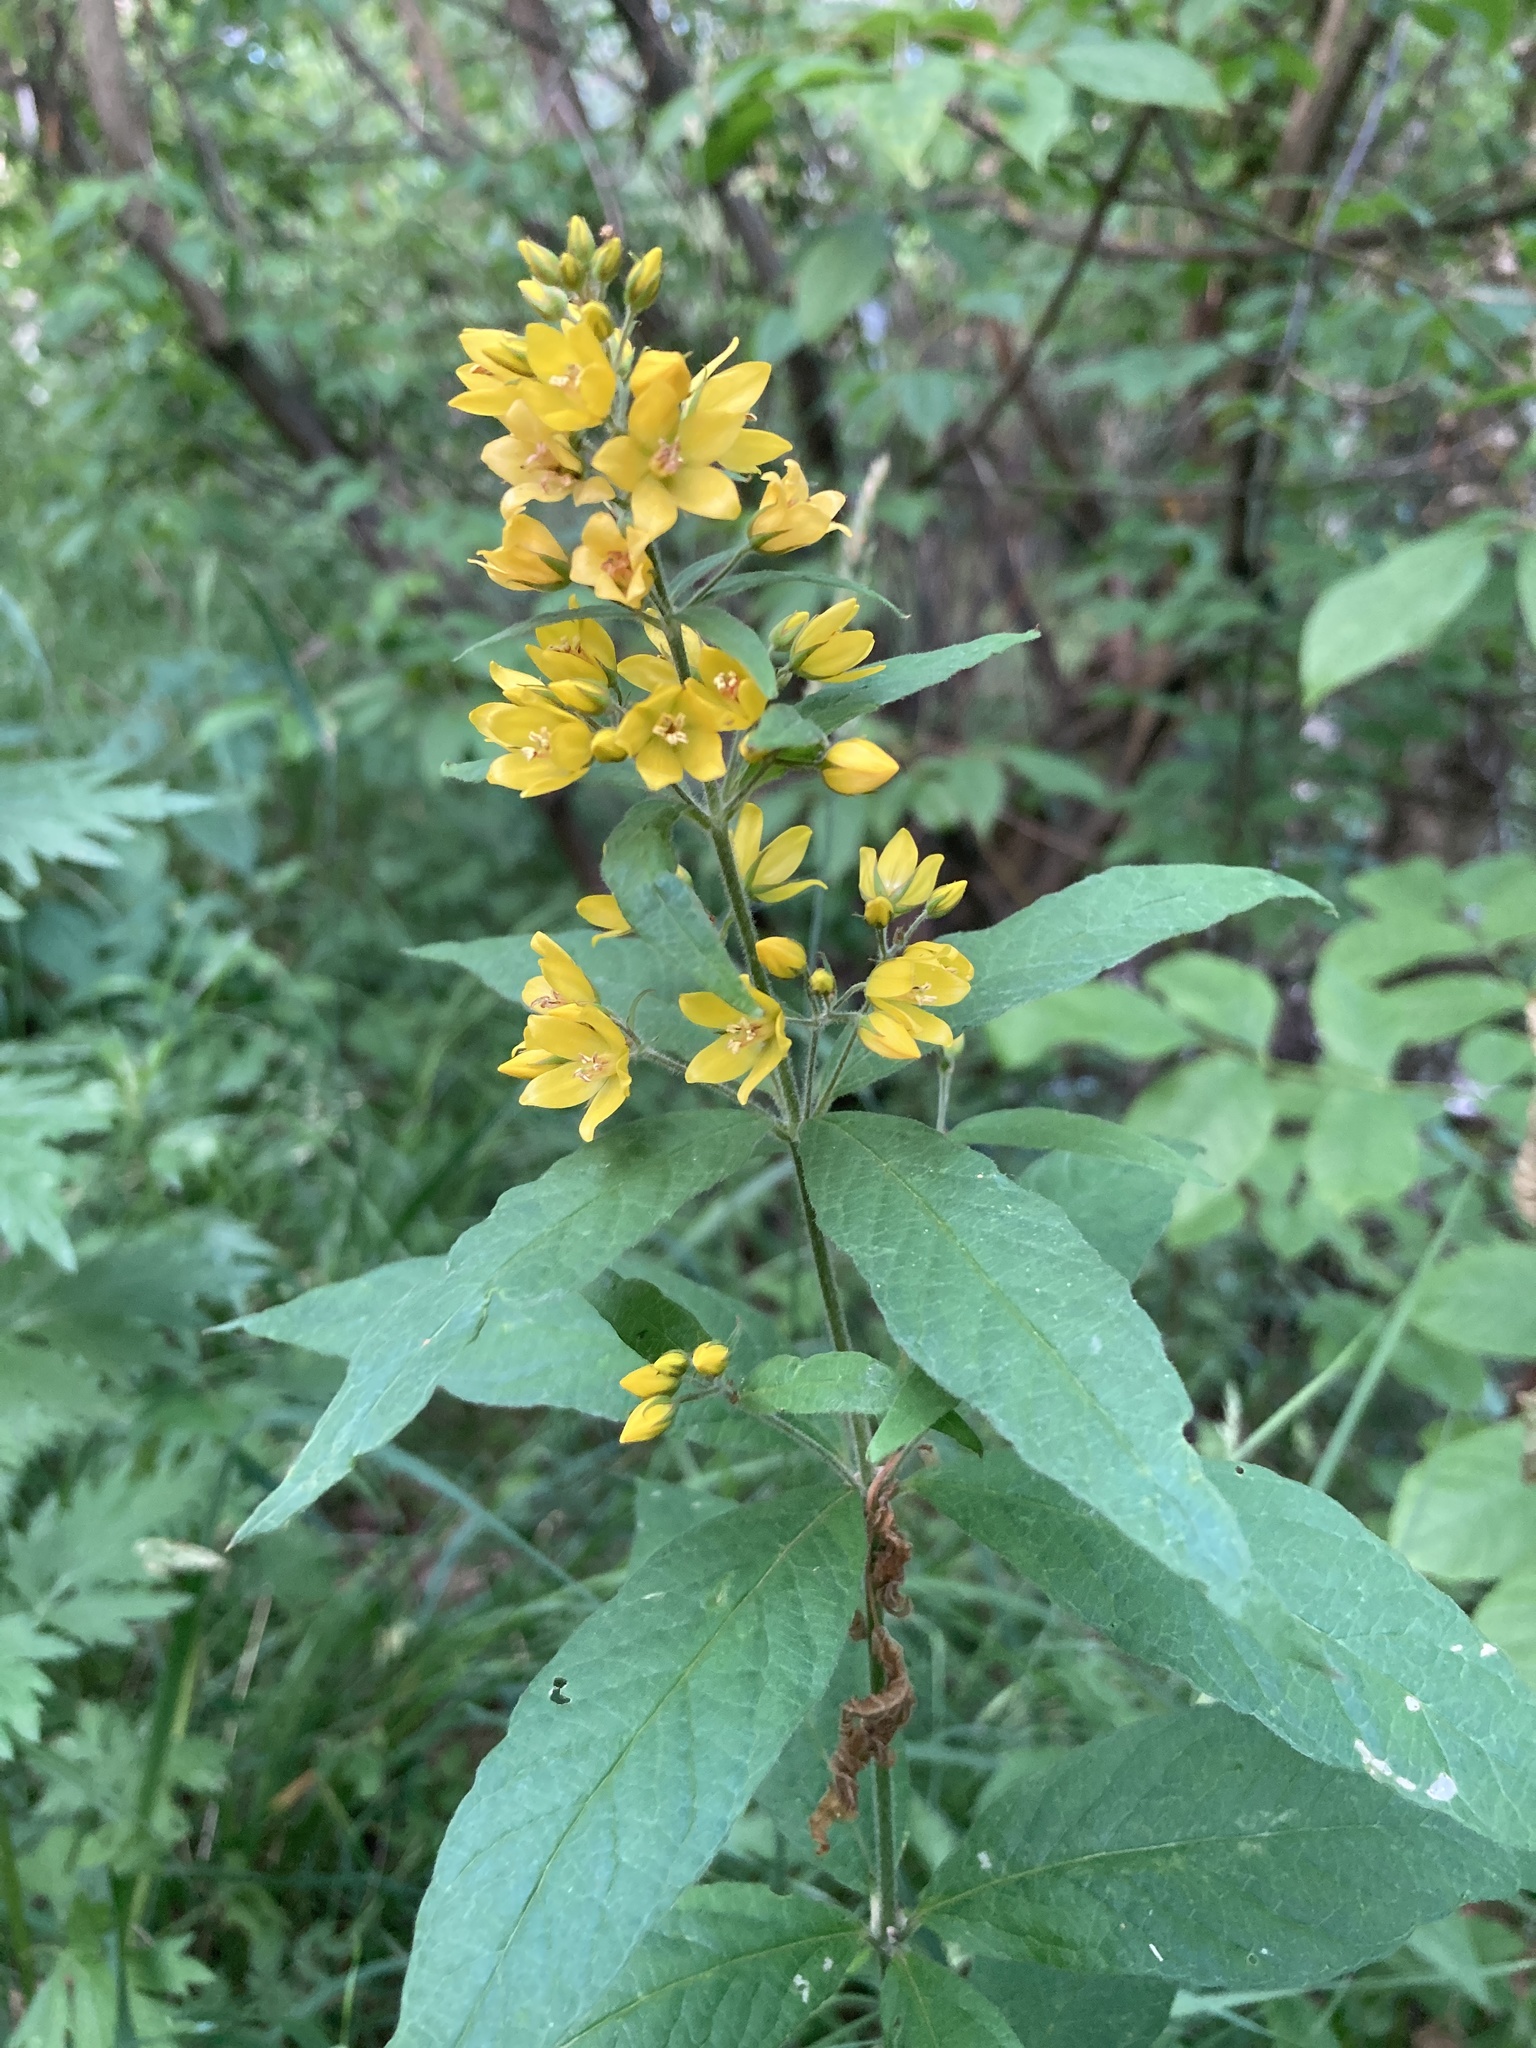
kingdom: Plantae
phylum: Tracheophyta
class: Magnoliopsida
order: Ericales
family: Primulaceae
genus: Lysimachia
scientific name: Lysimachia vulgaris
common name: Yellow loosestrife
